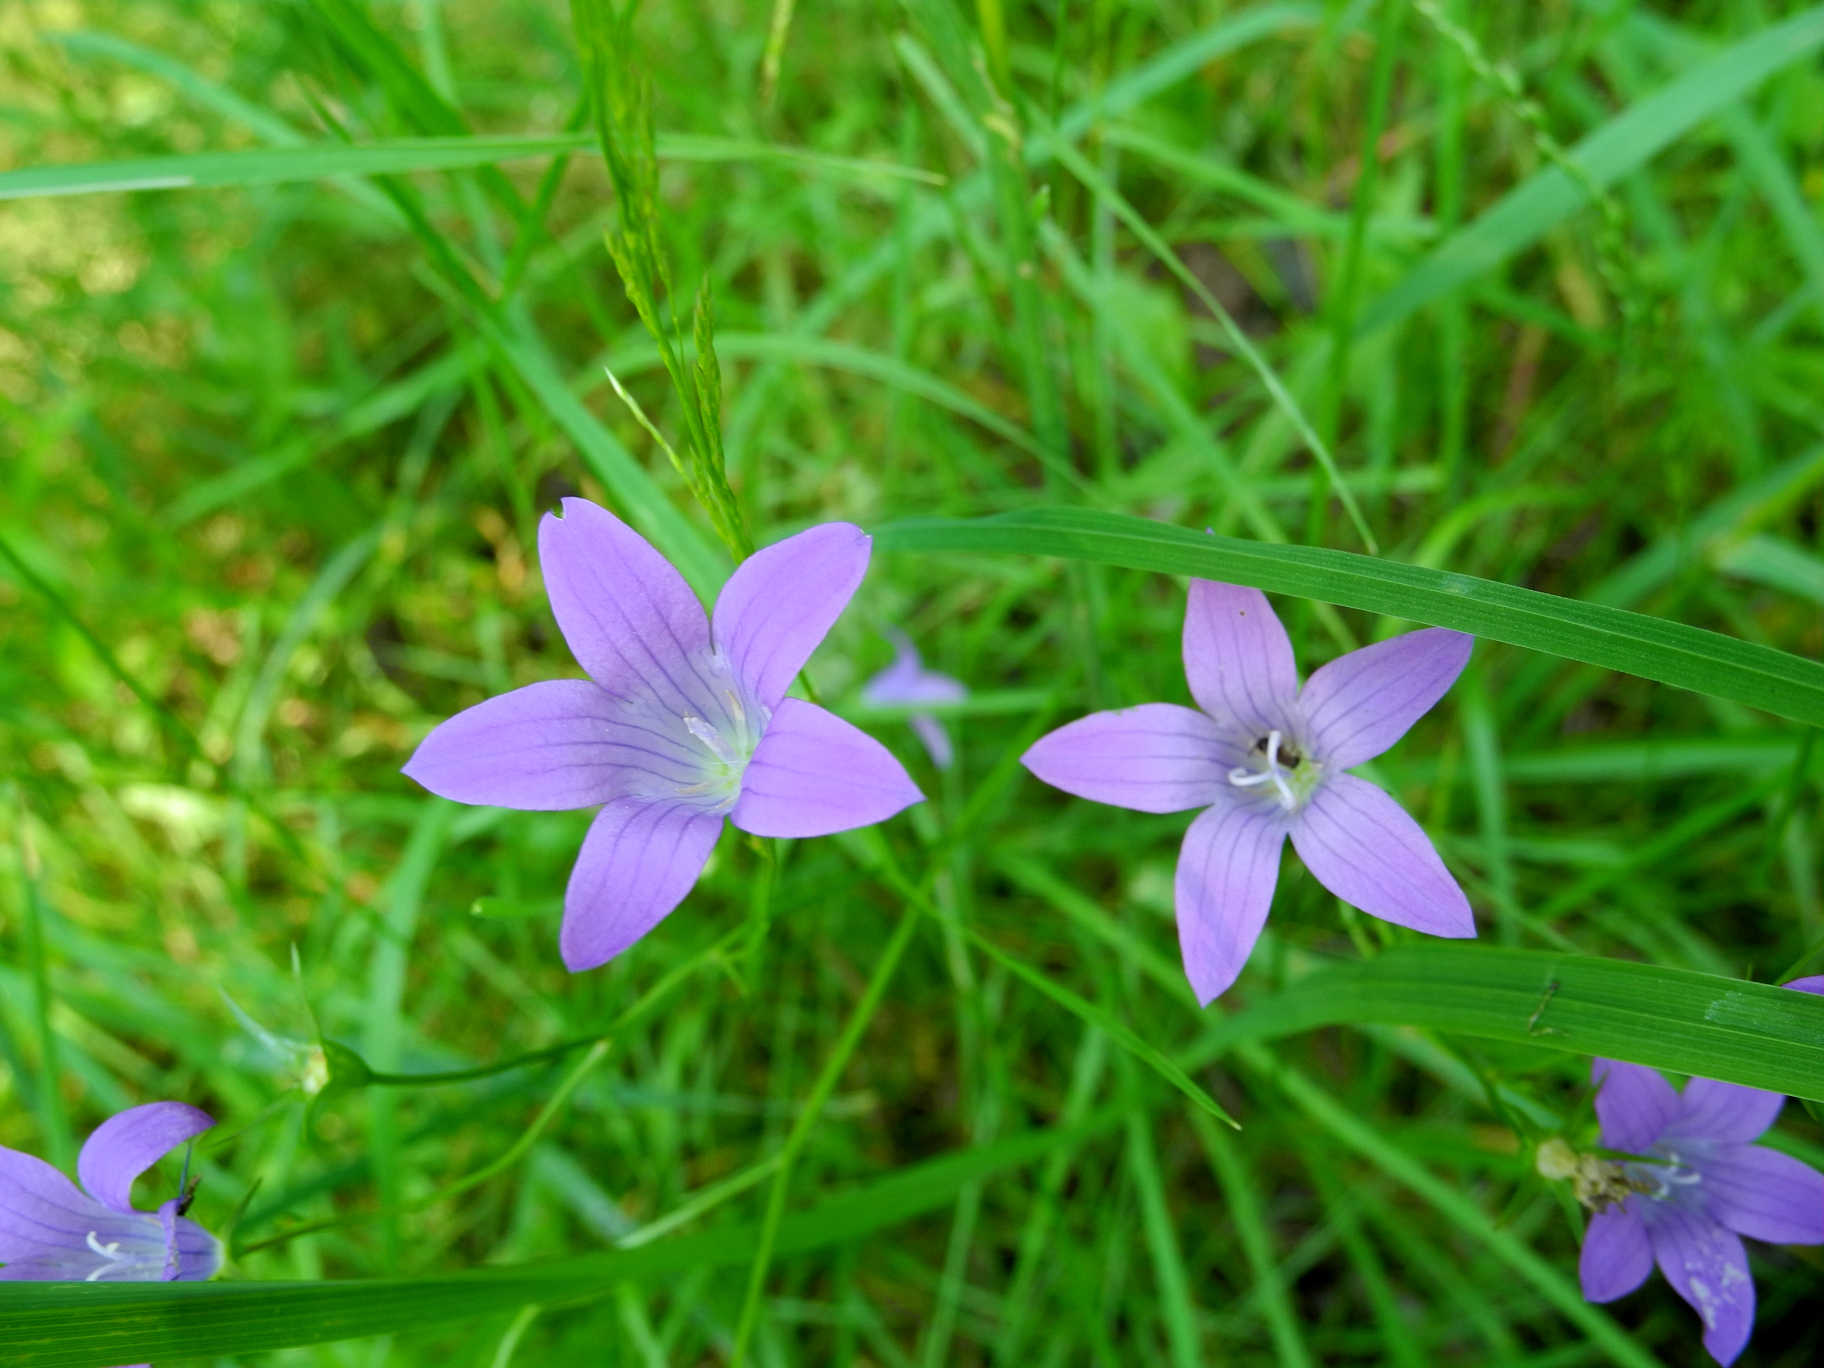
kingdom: Plantae
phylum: Tracheophyta
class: Magnoliopsida
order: Asterales
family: Campanulaceae
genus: Campanula
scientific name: Campanula patula
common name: Spreading bellflower
